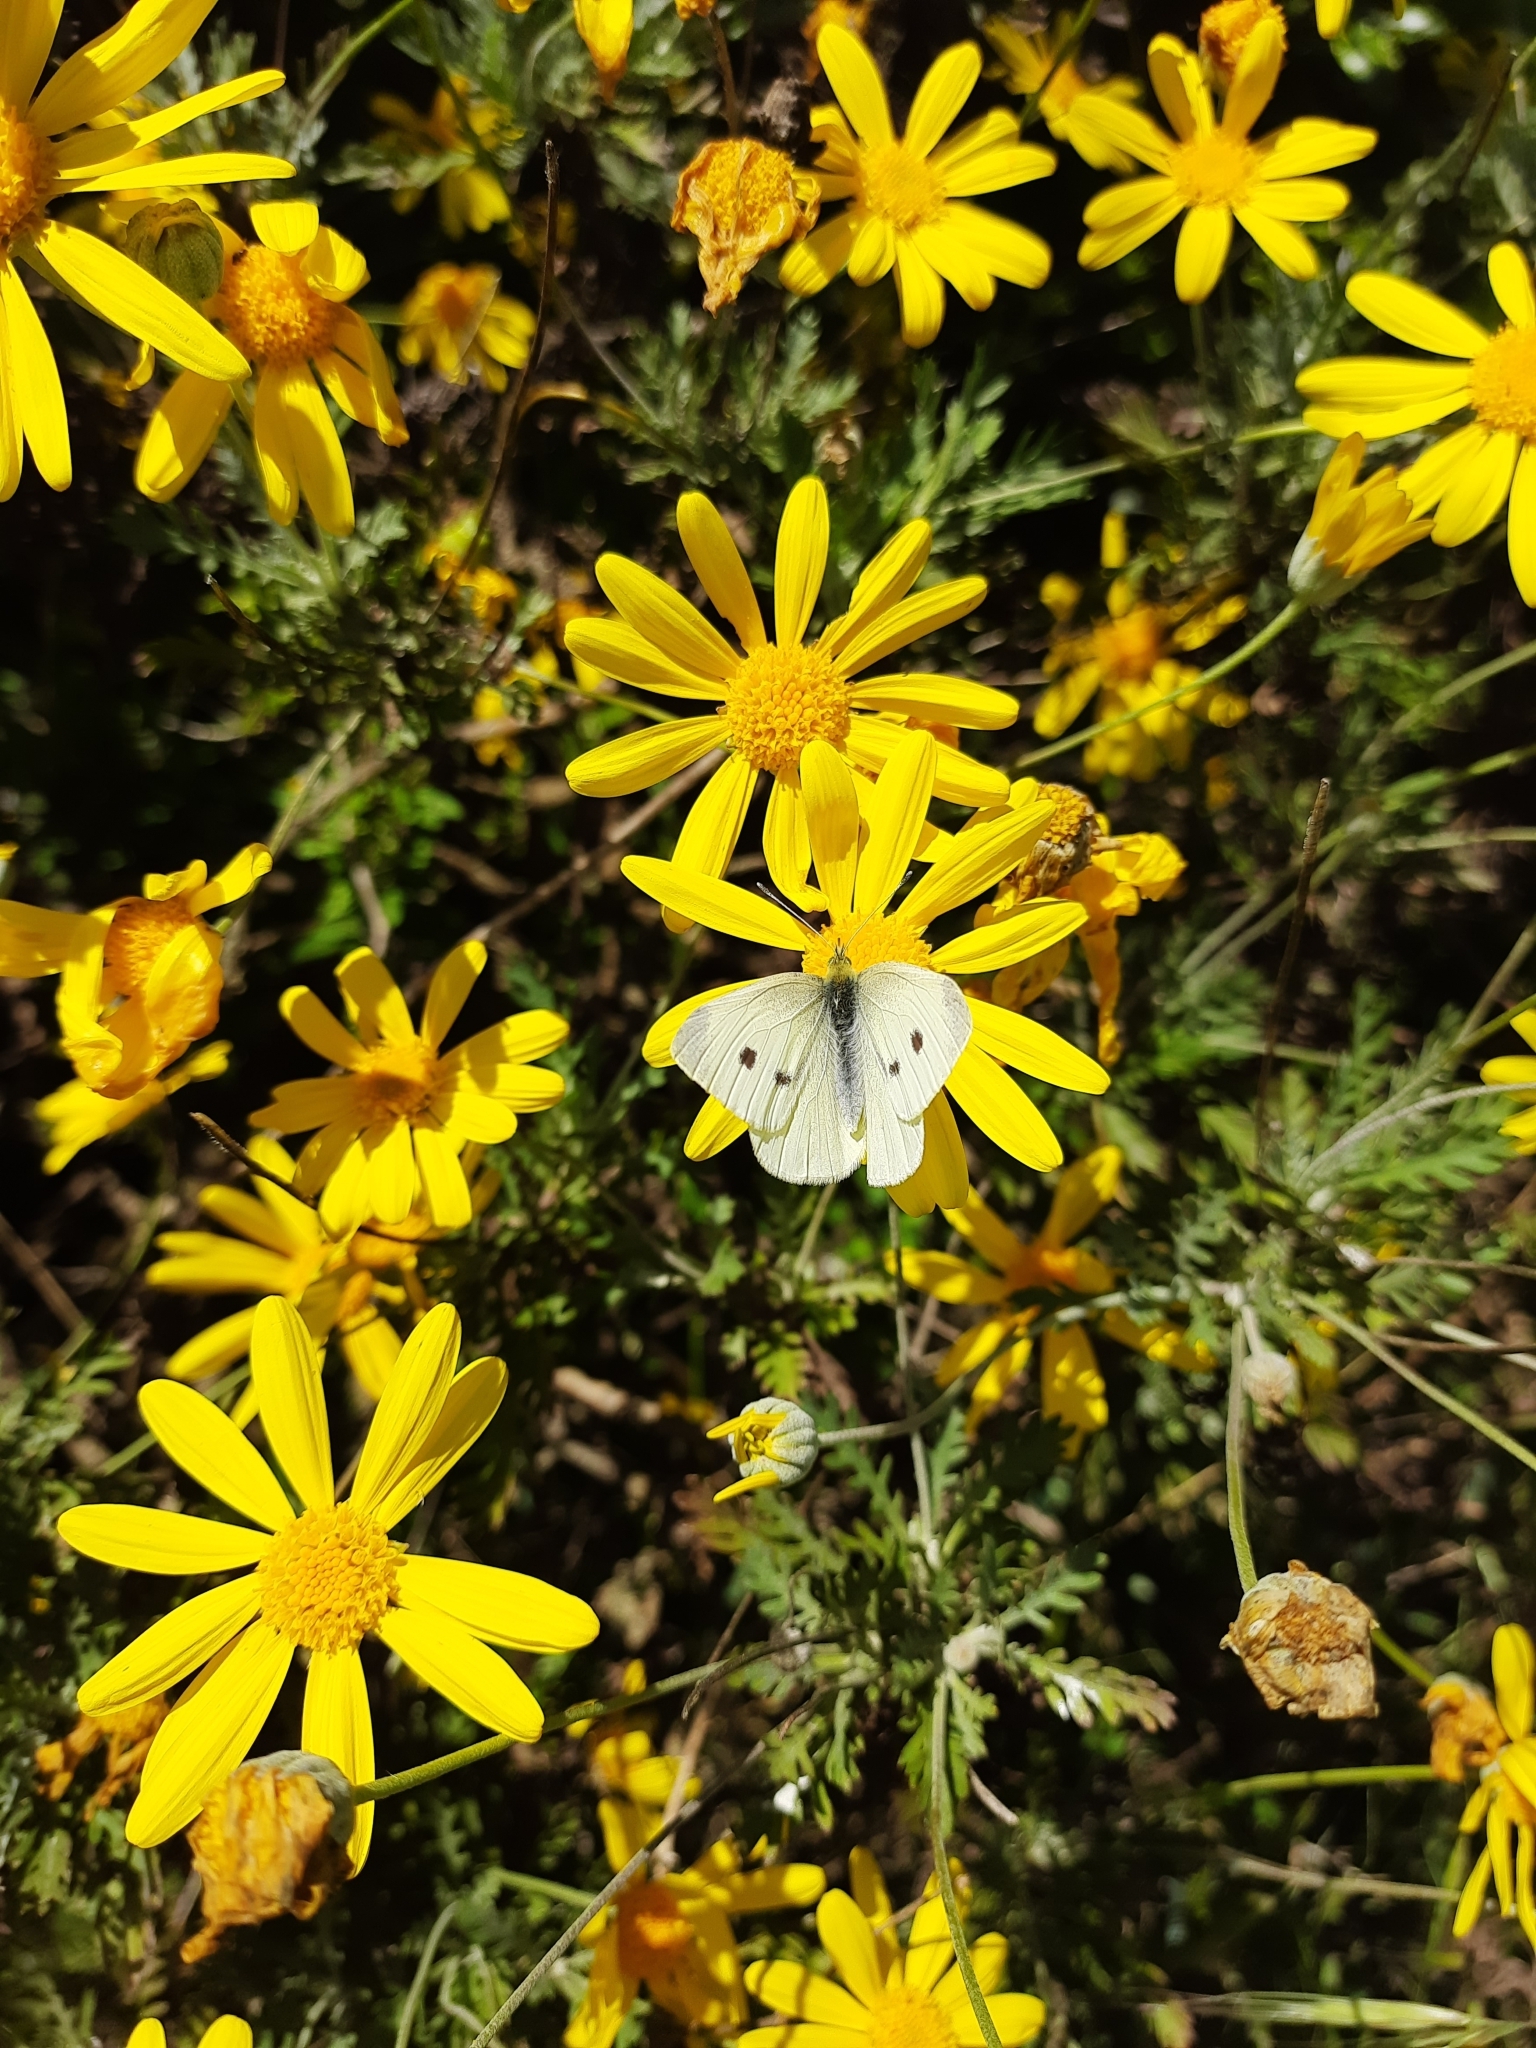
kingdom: Animalia
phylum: Arthropoda
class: Insecta
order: Lepidoptera
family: Pieridae
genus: Pieris
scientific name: Pieris rapae
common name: Small white
